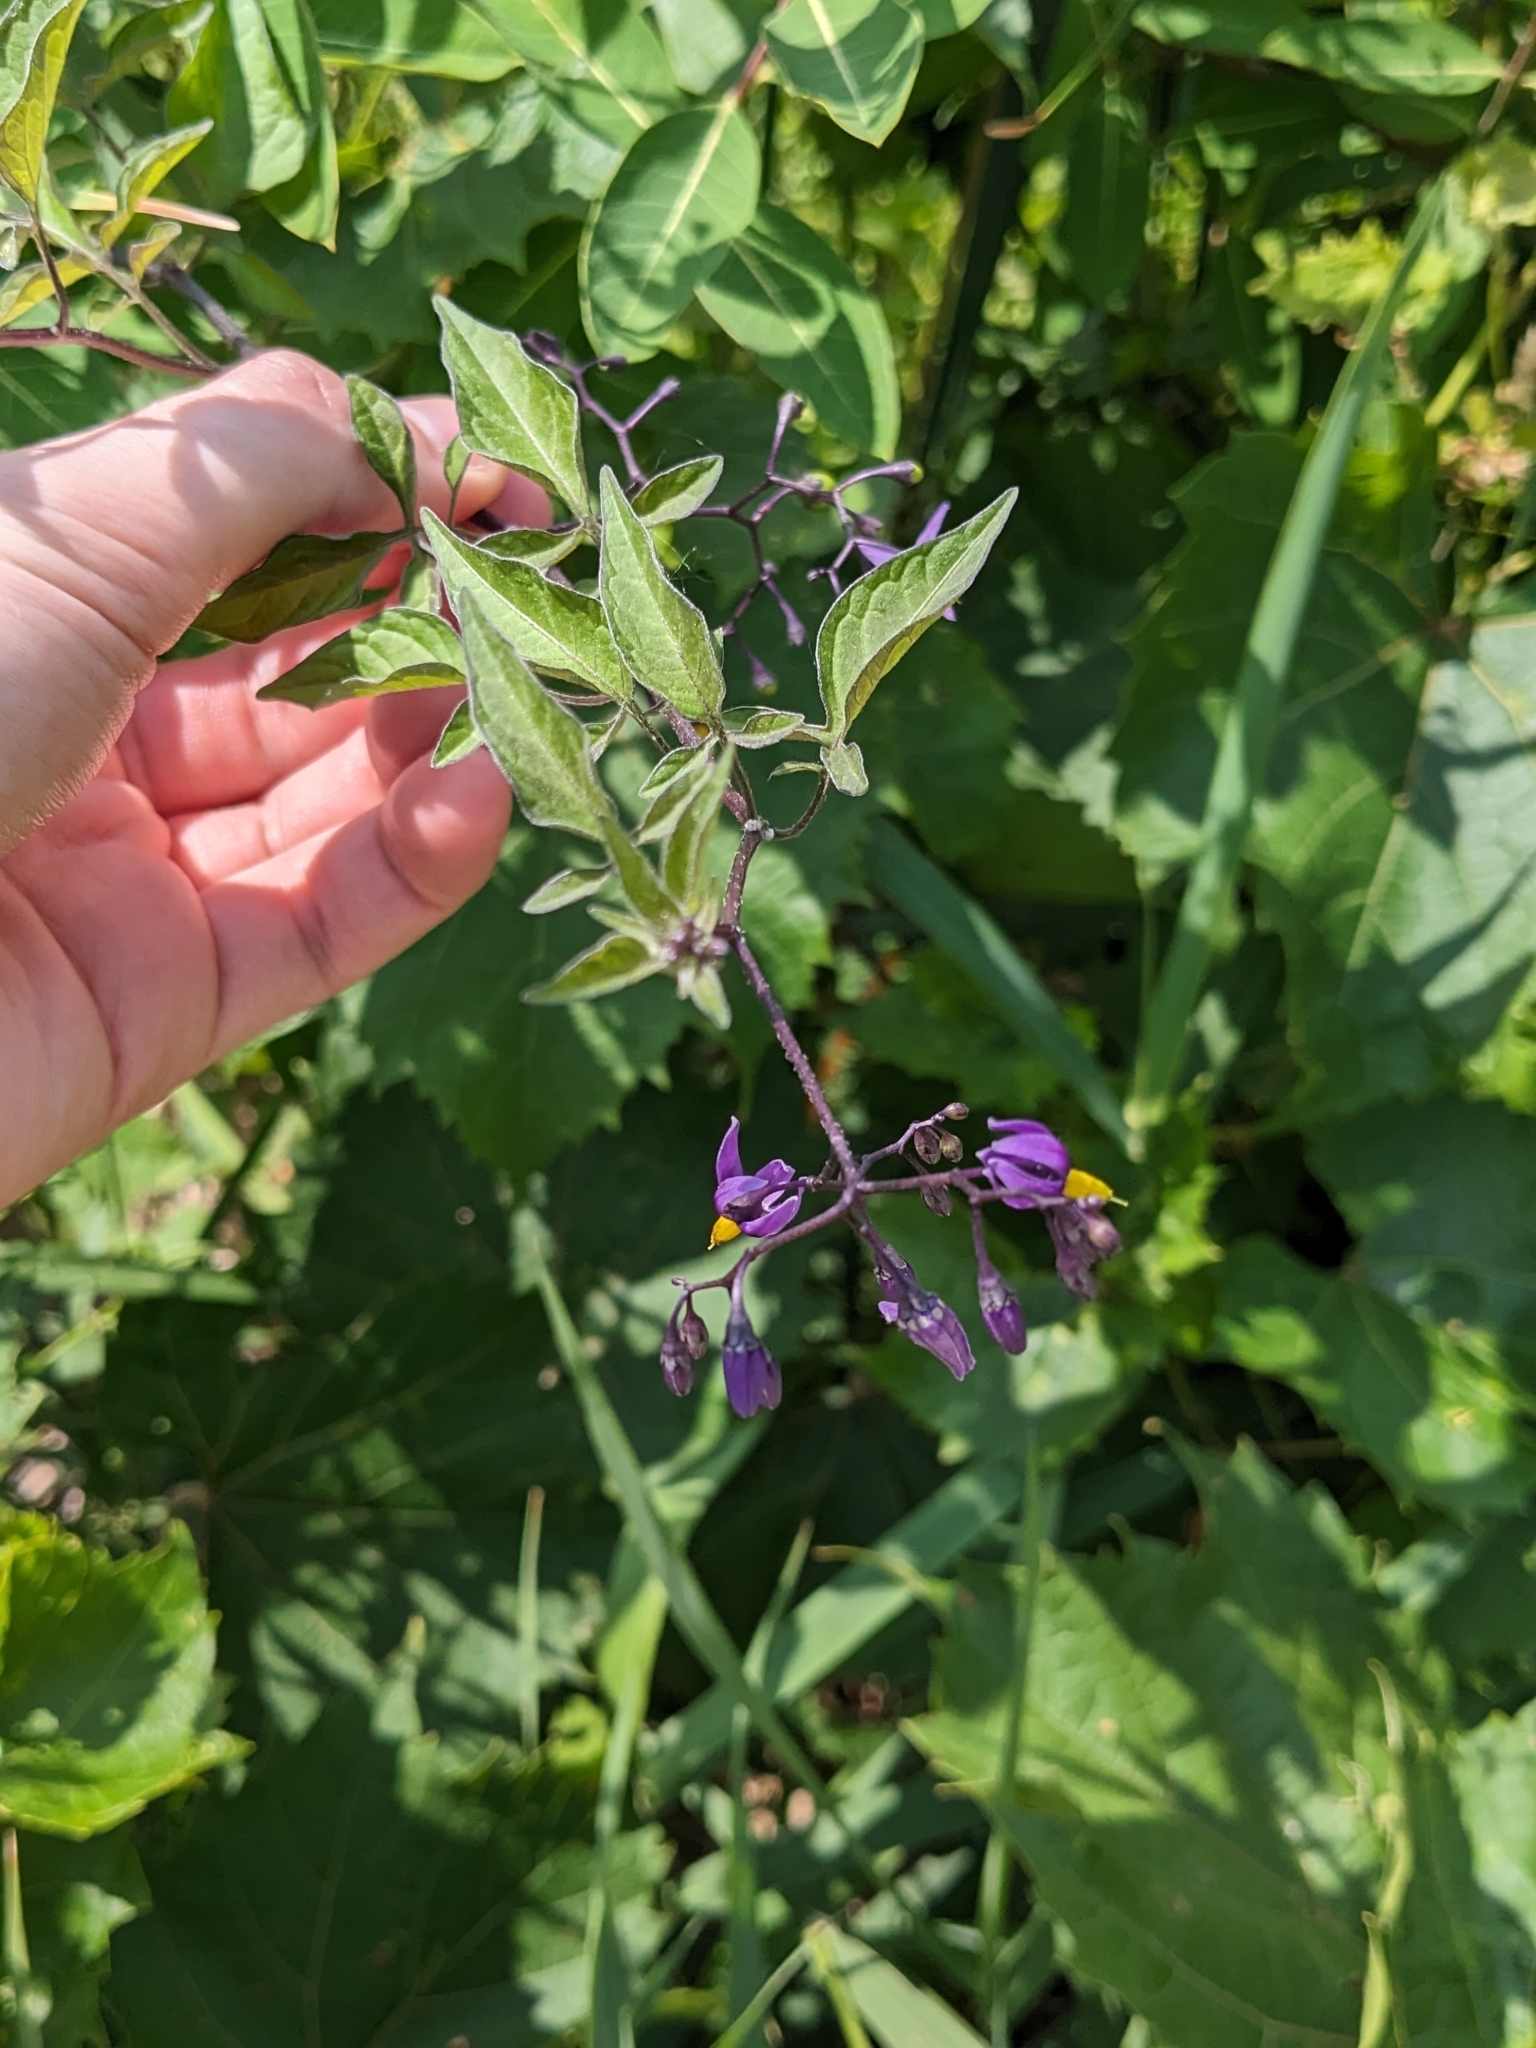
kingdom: Plantae
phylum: Tracheophyta
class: Magnoliopsida
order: Solanales
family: Solanaceae
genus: Solanum
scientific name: Solanum dulcamara
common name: Climbing nightshade
